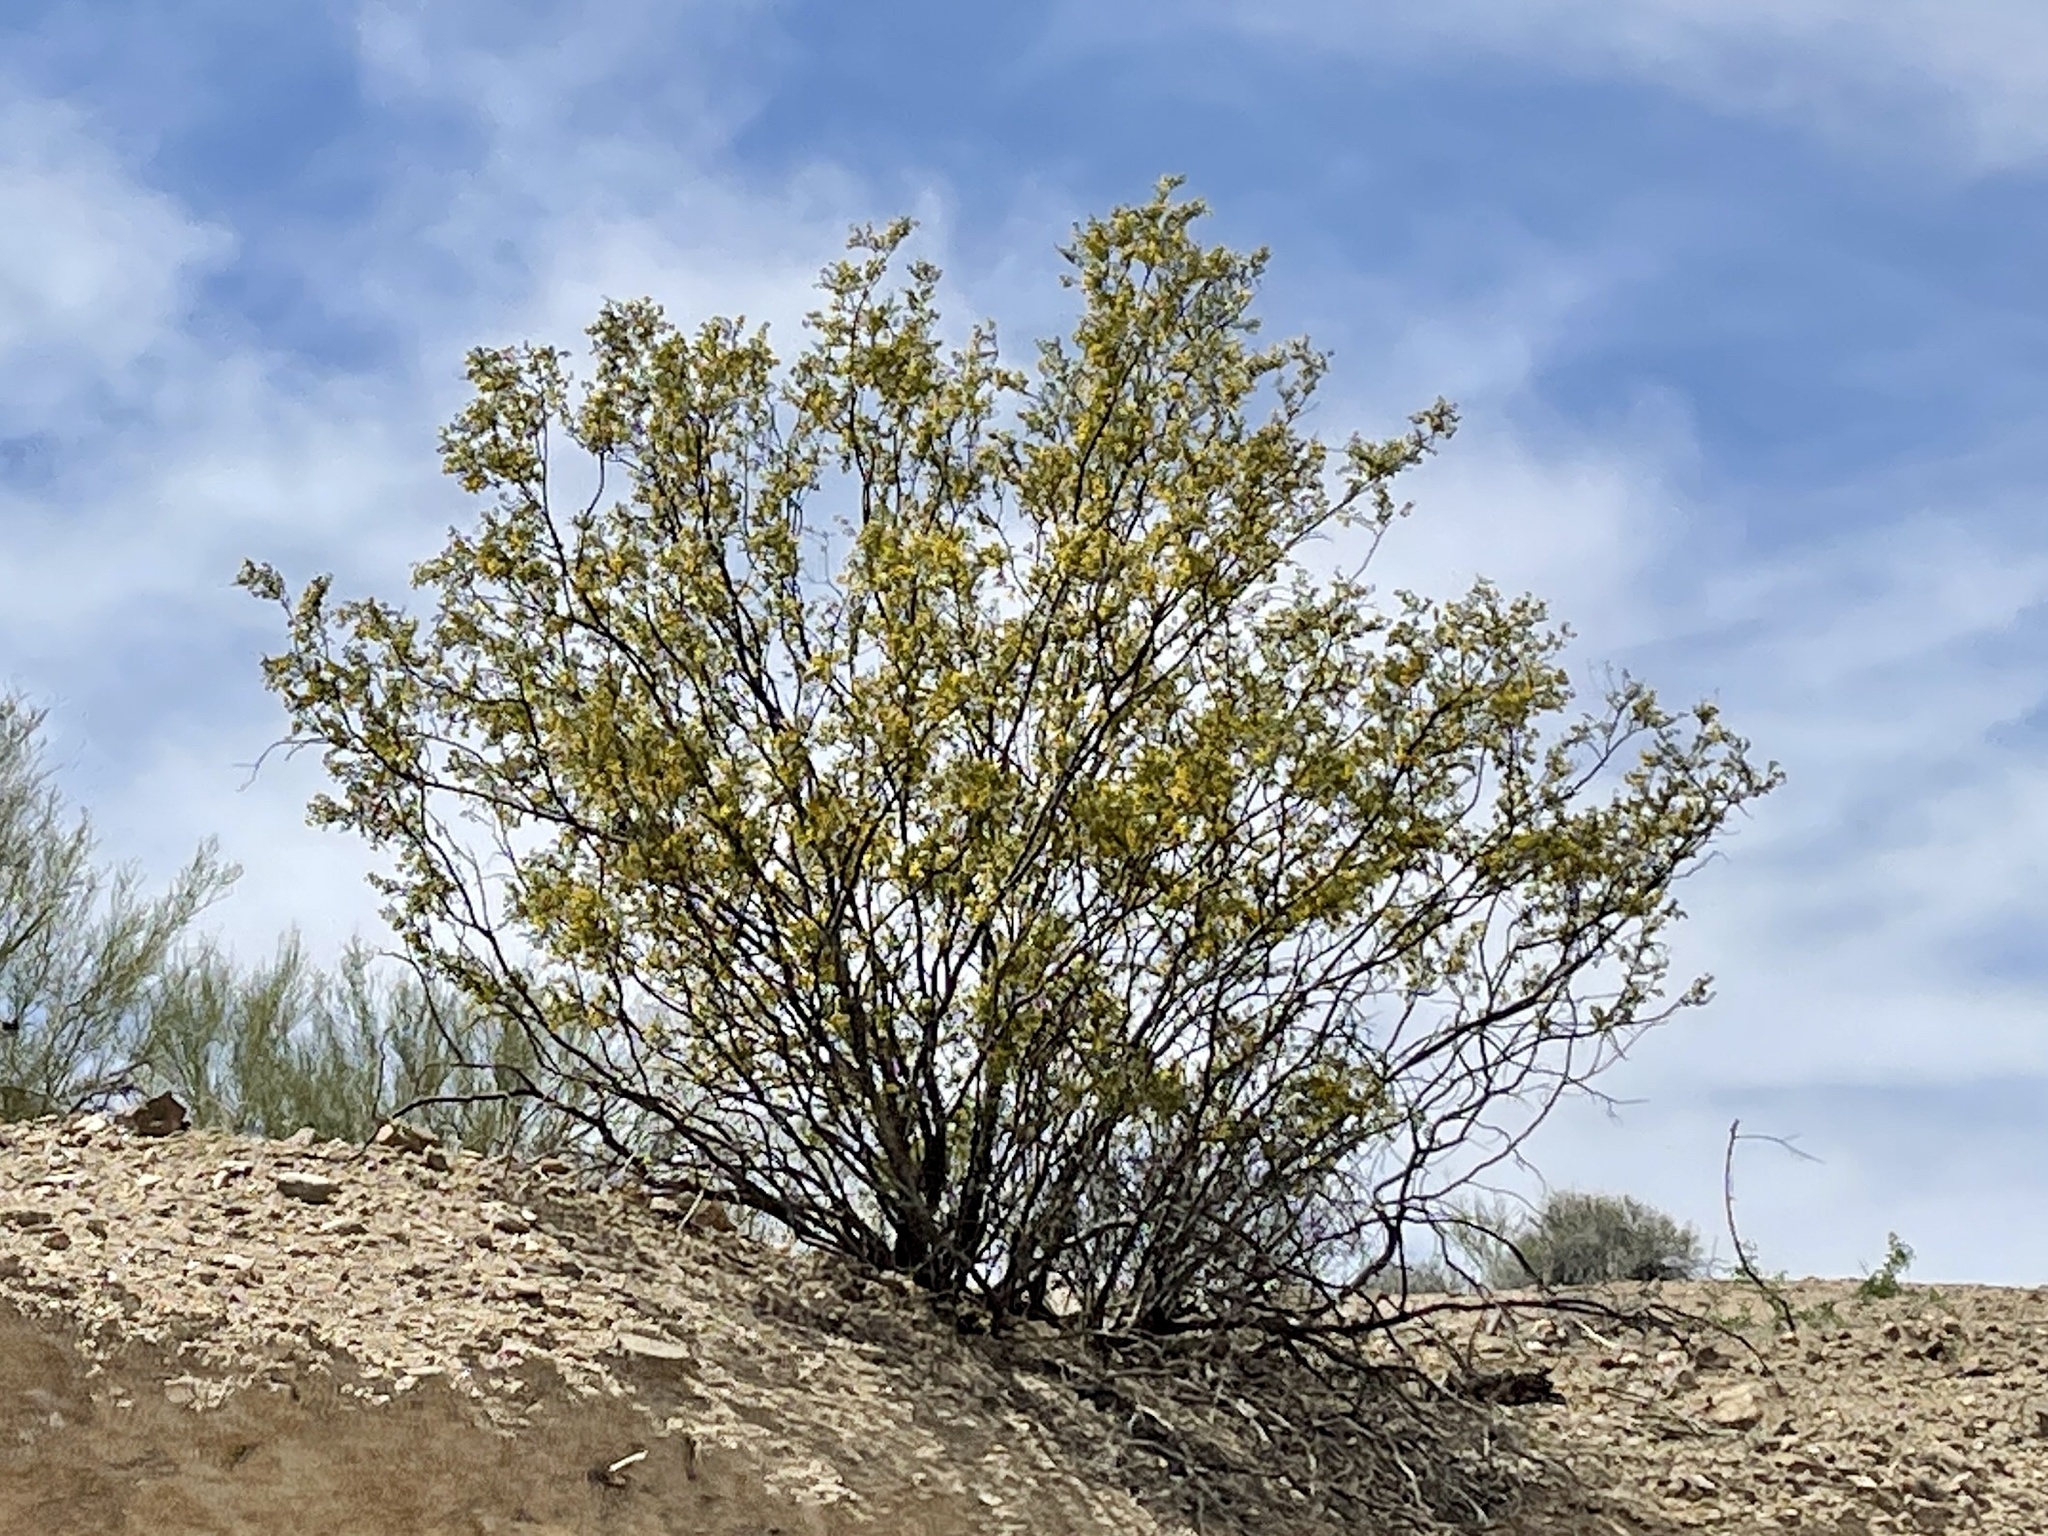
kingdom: Plantae
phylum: Tracheophyta
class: Magnoliopsida
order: Zygophyllales
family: Zygophyllaceae
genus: Larrea
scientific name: Larrea tridentata
